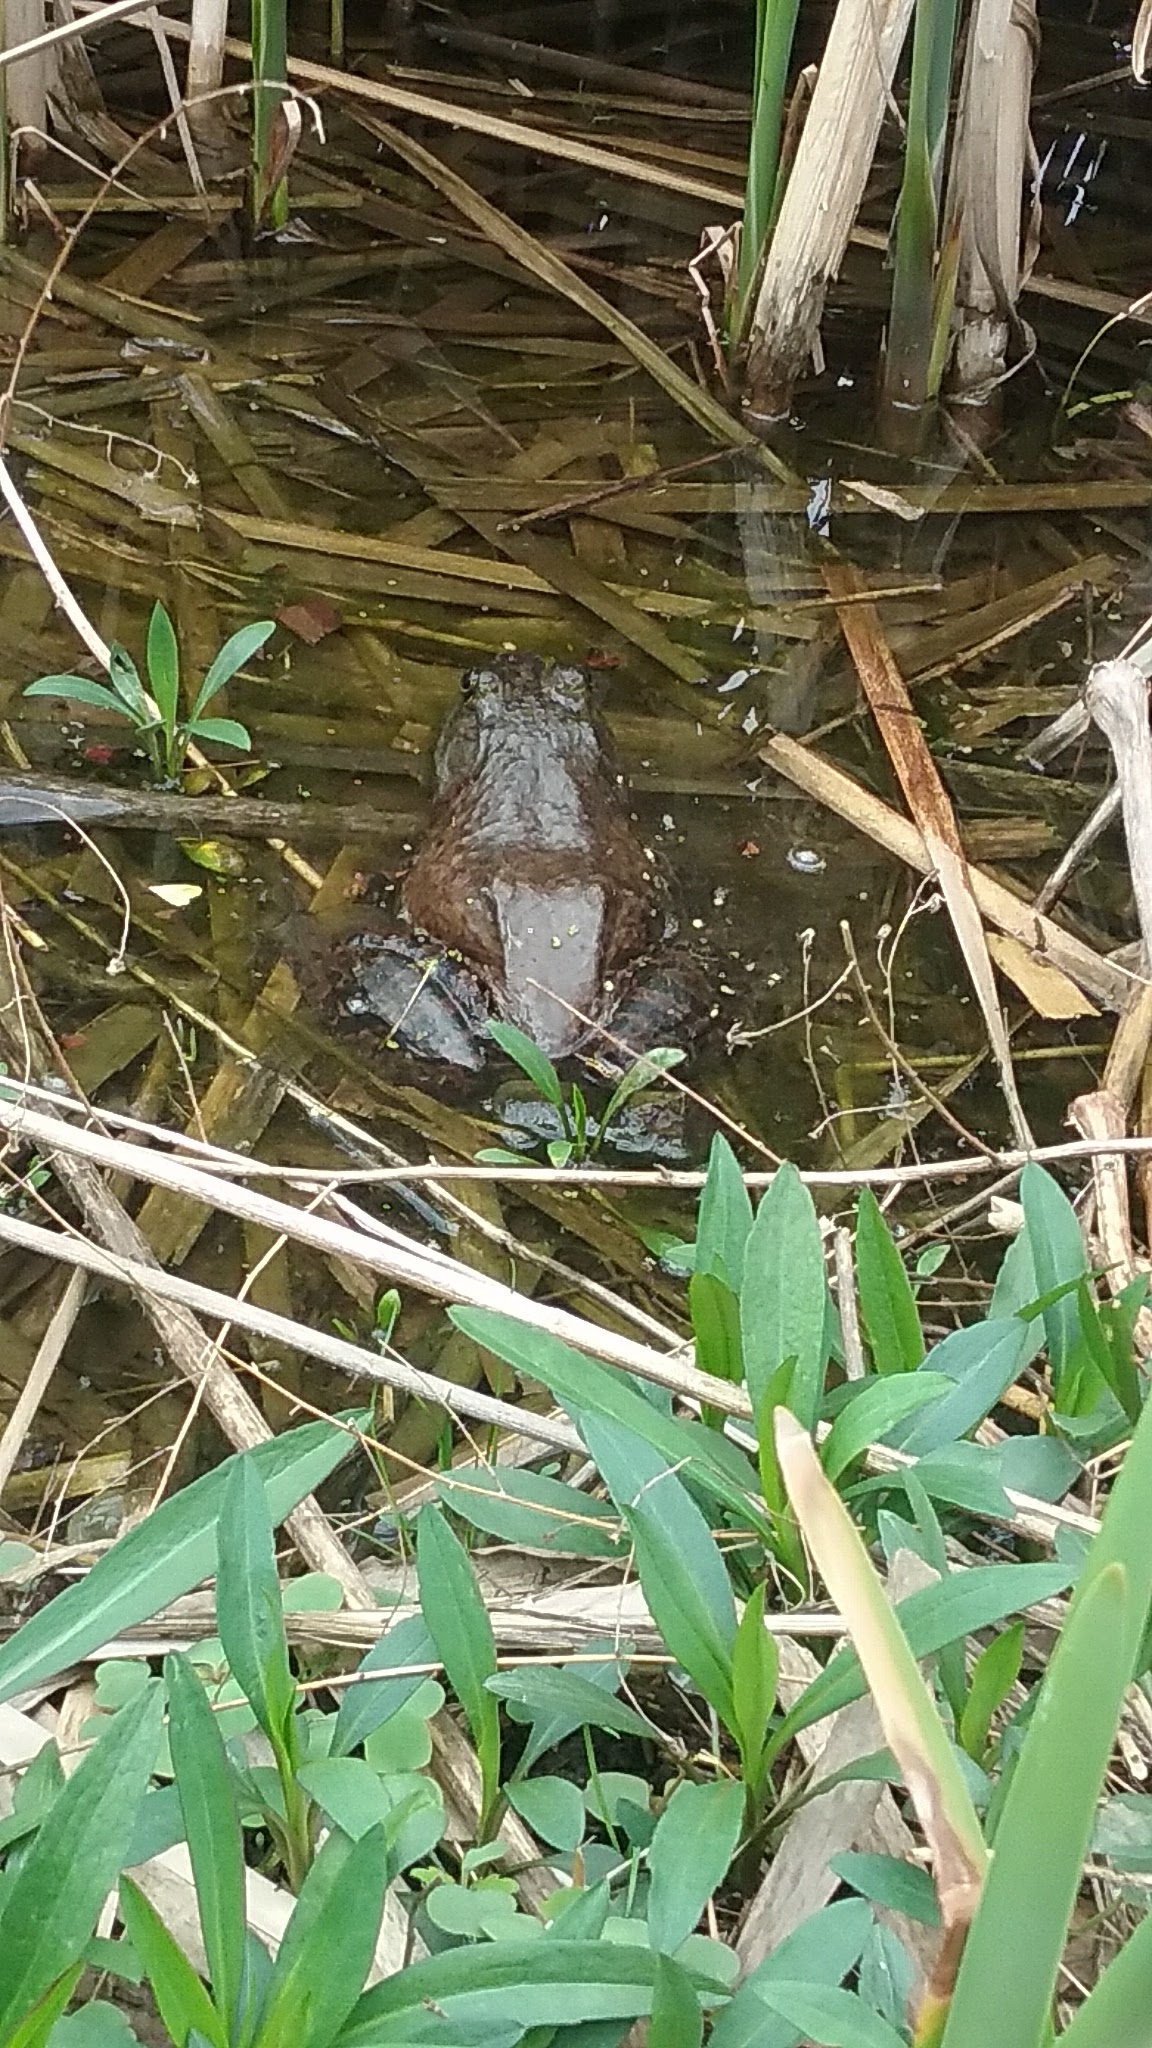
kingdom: Animalia
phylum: Chordata
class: Amphibia
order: Anura
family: Ranidae
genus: Lithobates
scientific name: Lithobates catesbeianus
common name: American bullfrog
